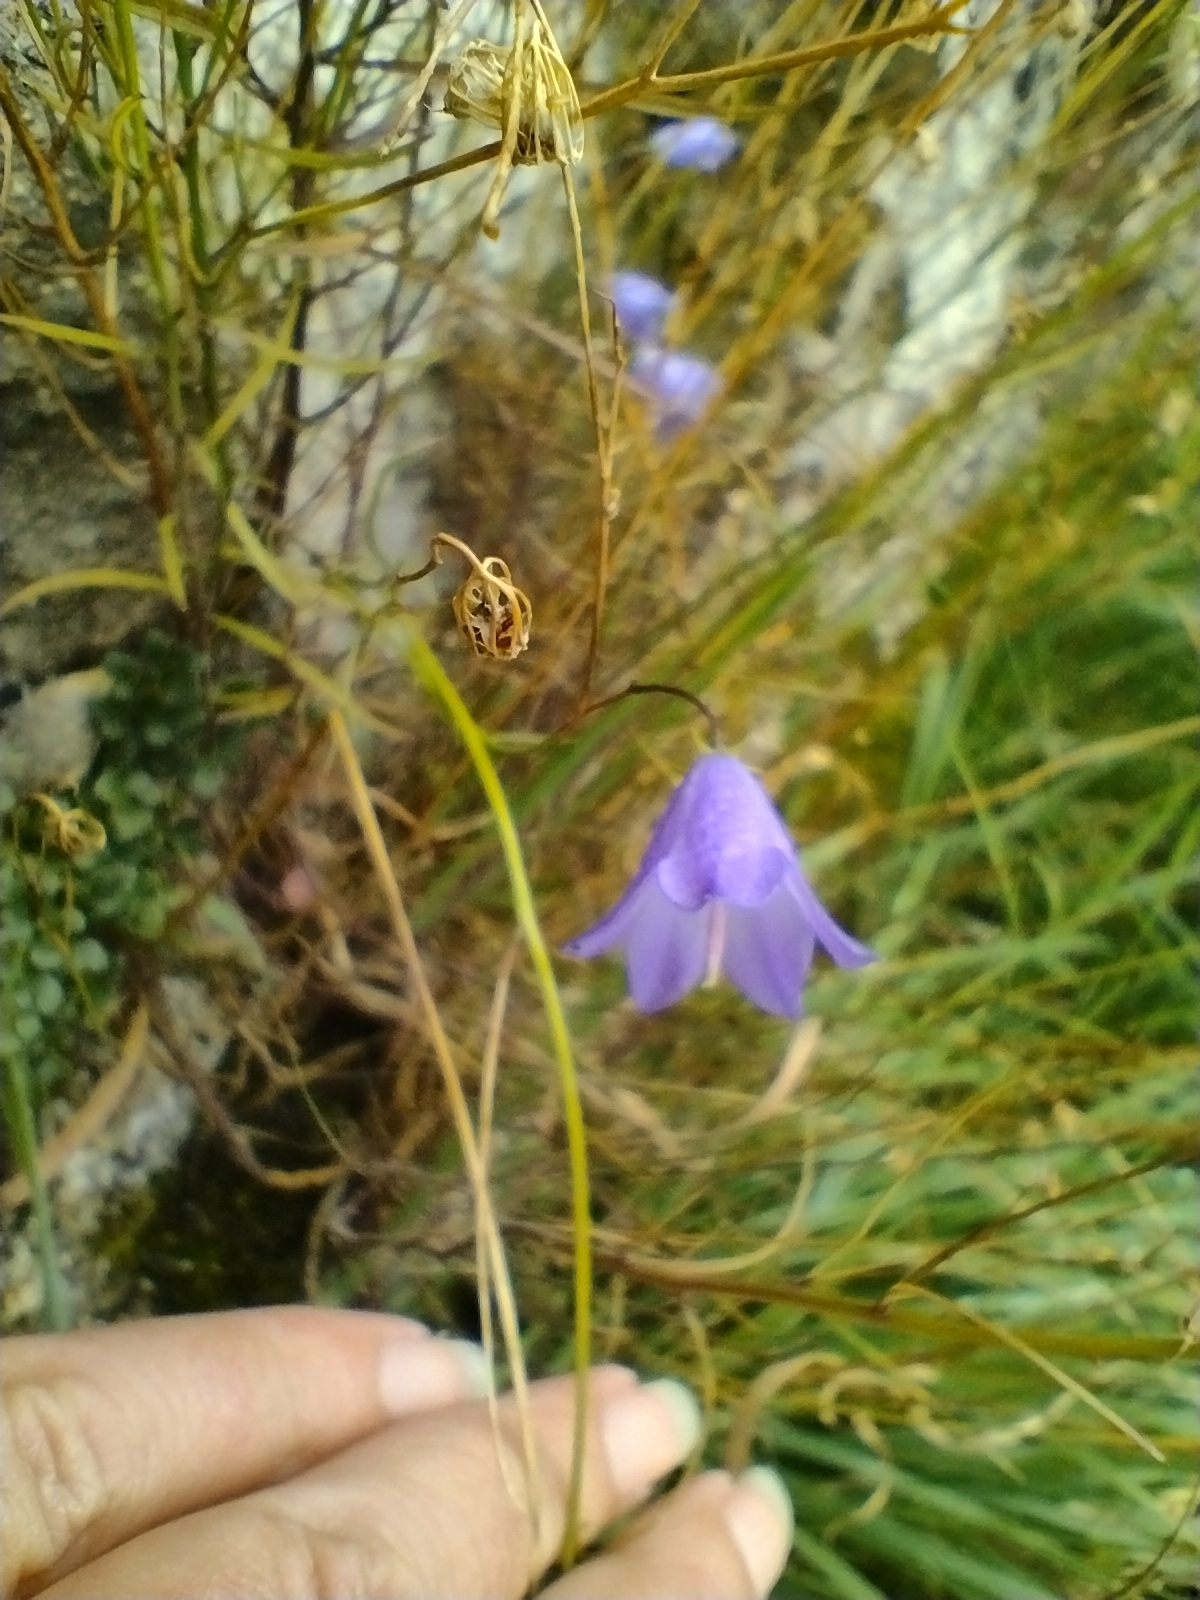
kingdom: Plantae
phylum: Tracheophyta
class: Magnoliopsida
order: Asterales
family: Campanulaceae
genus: Campanula
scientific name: Campanula rotundifolia
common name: Harebell
